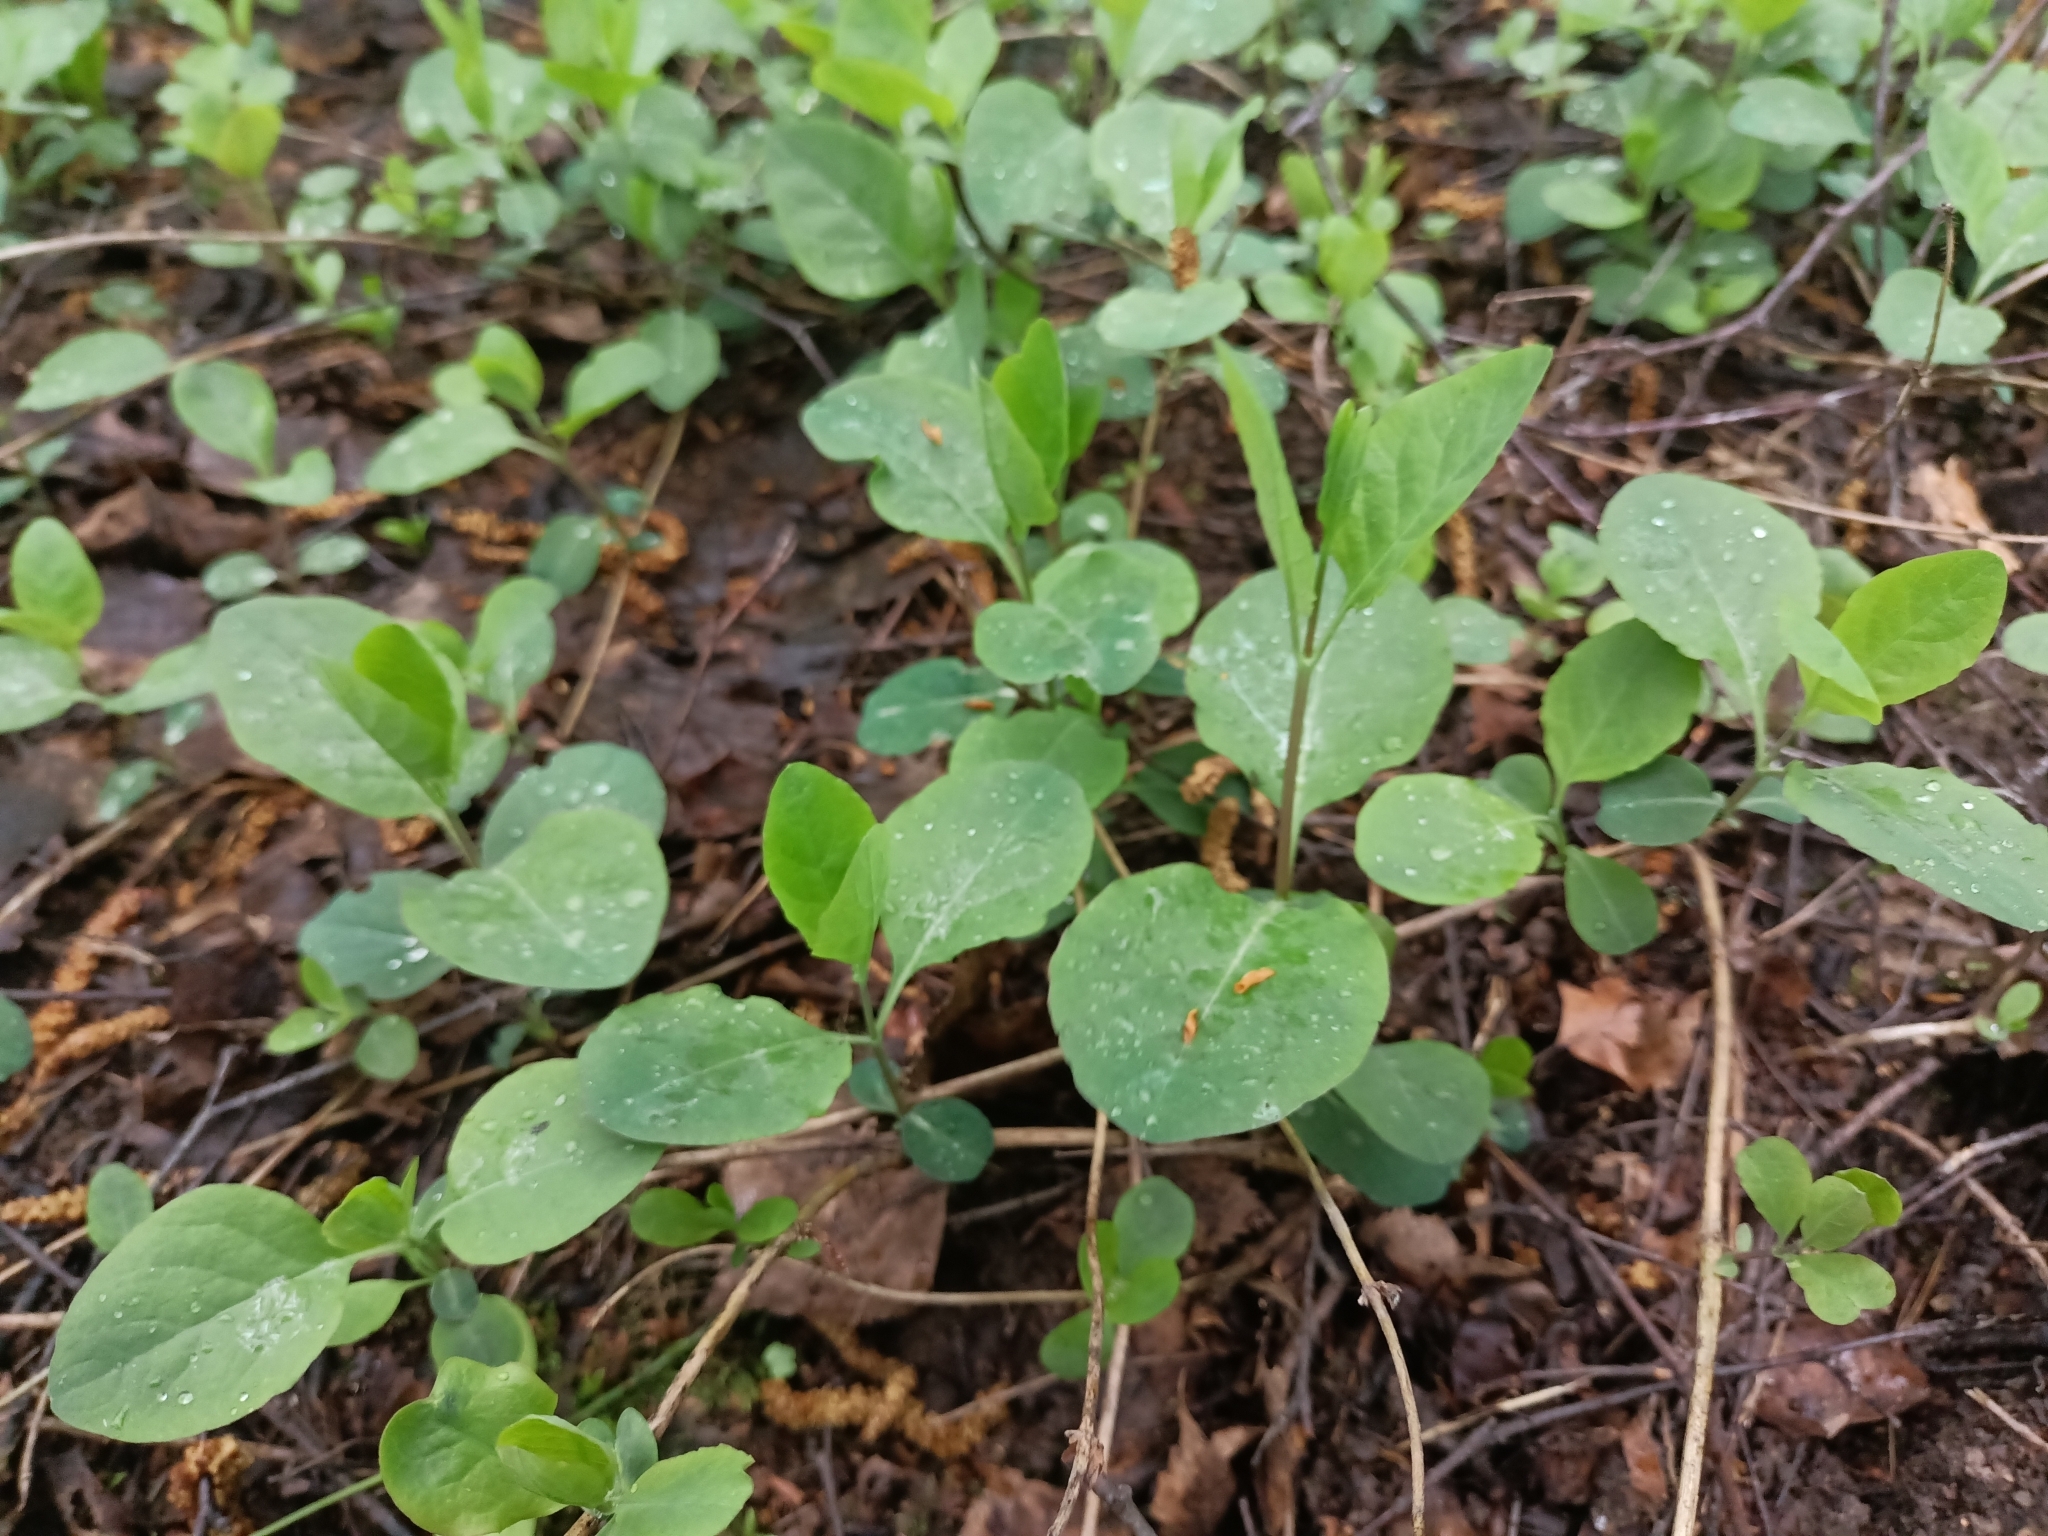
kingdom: Plantae
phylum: Tracheophyta
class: Magnoliopsida
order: Dipsacales
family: Caprifoliaceae
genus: Lonicera
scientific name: Lonicera caprifolium
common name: Perfoliate honeysuckle
